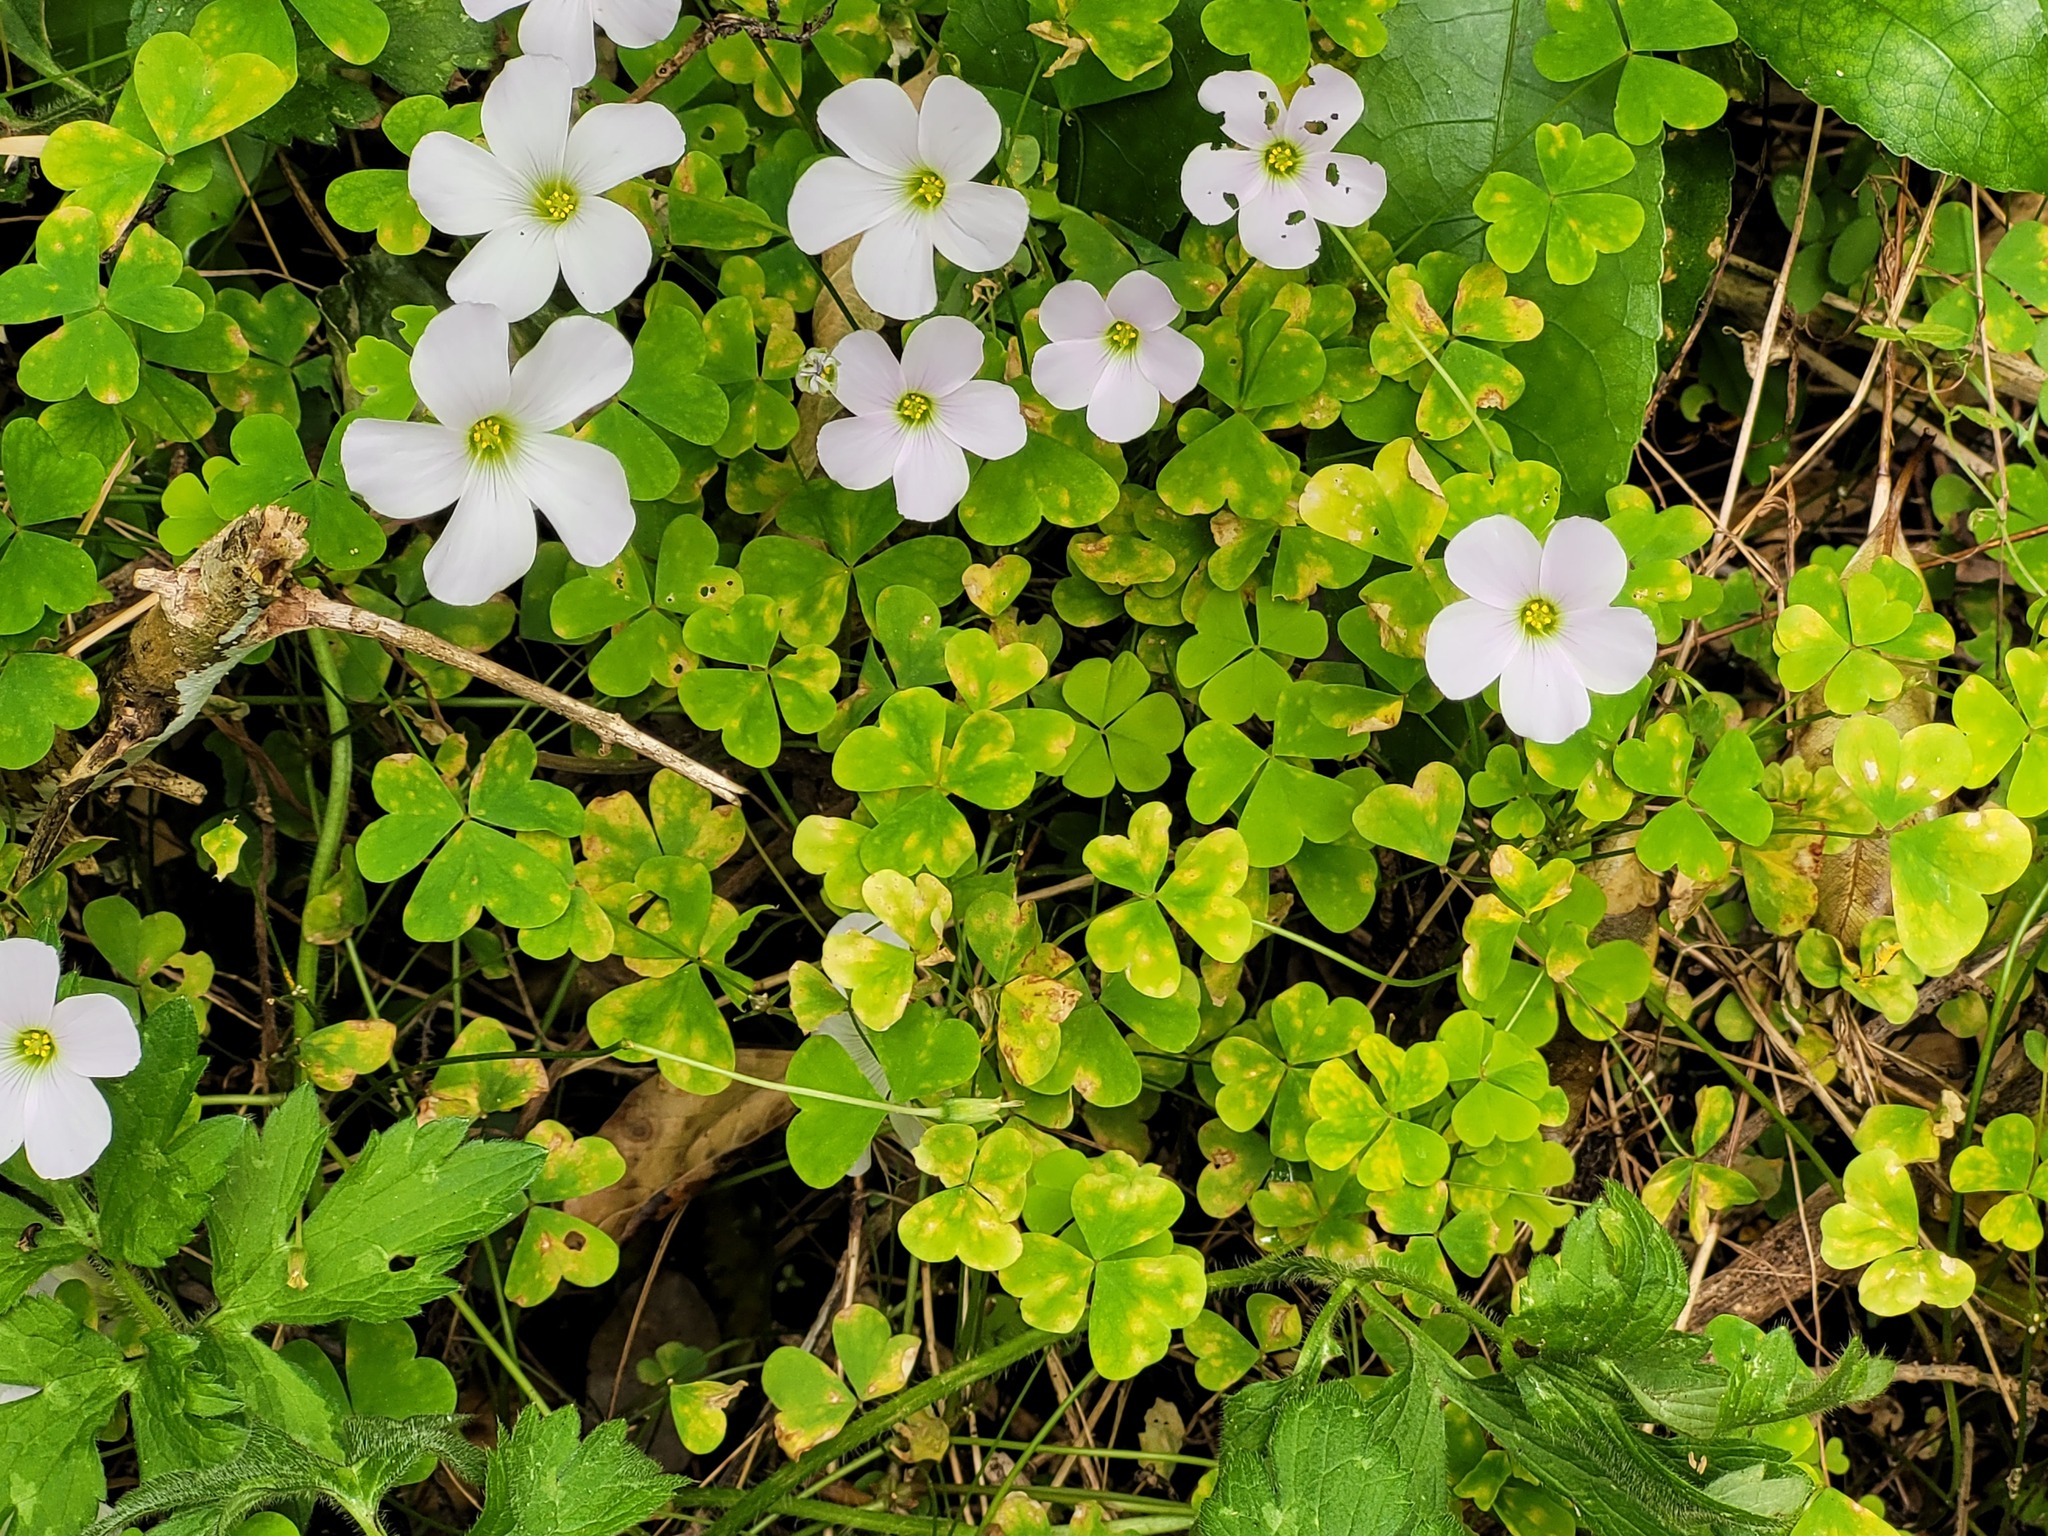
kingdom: Plantae
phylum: Tracheophyta
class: Magnoliopsida
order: Oxalidales
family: Oxalidaceae
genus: Oxalis
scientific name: Oxalis incarnata
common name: Pale pink-sorrel
